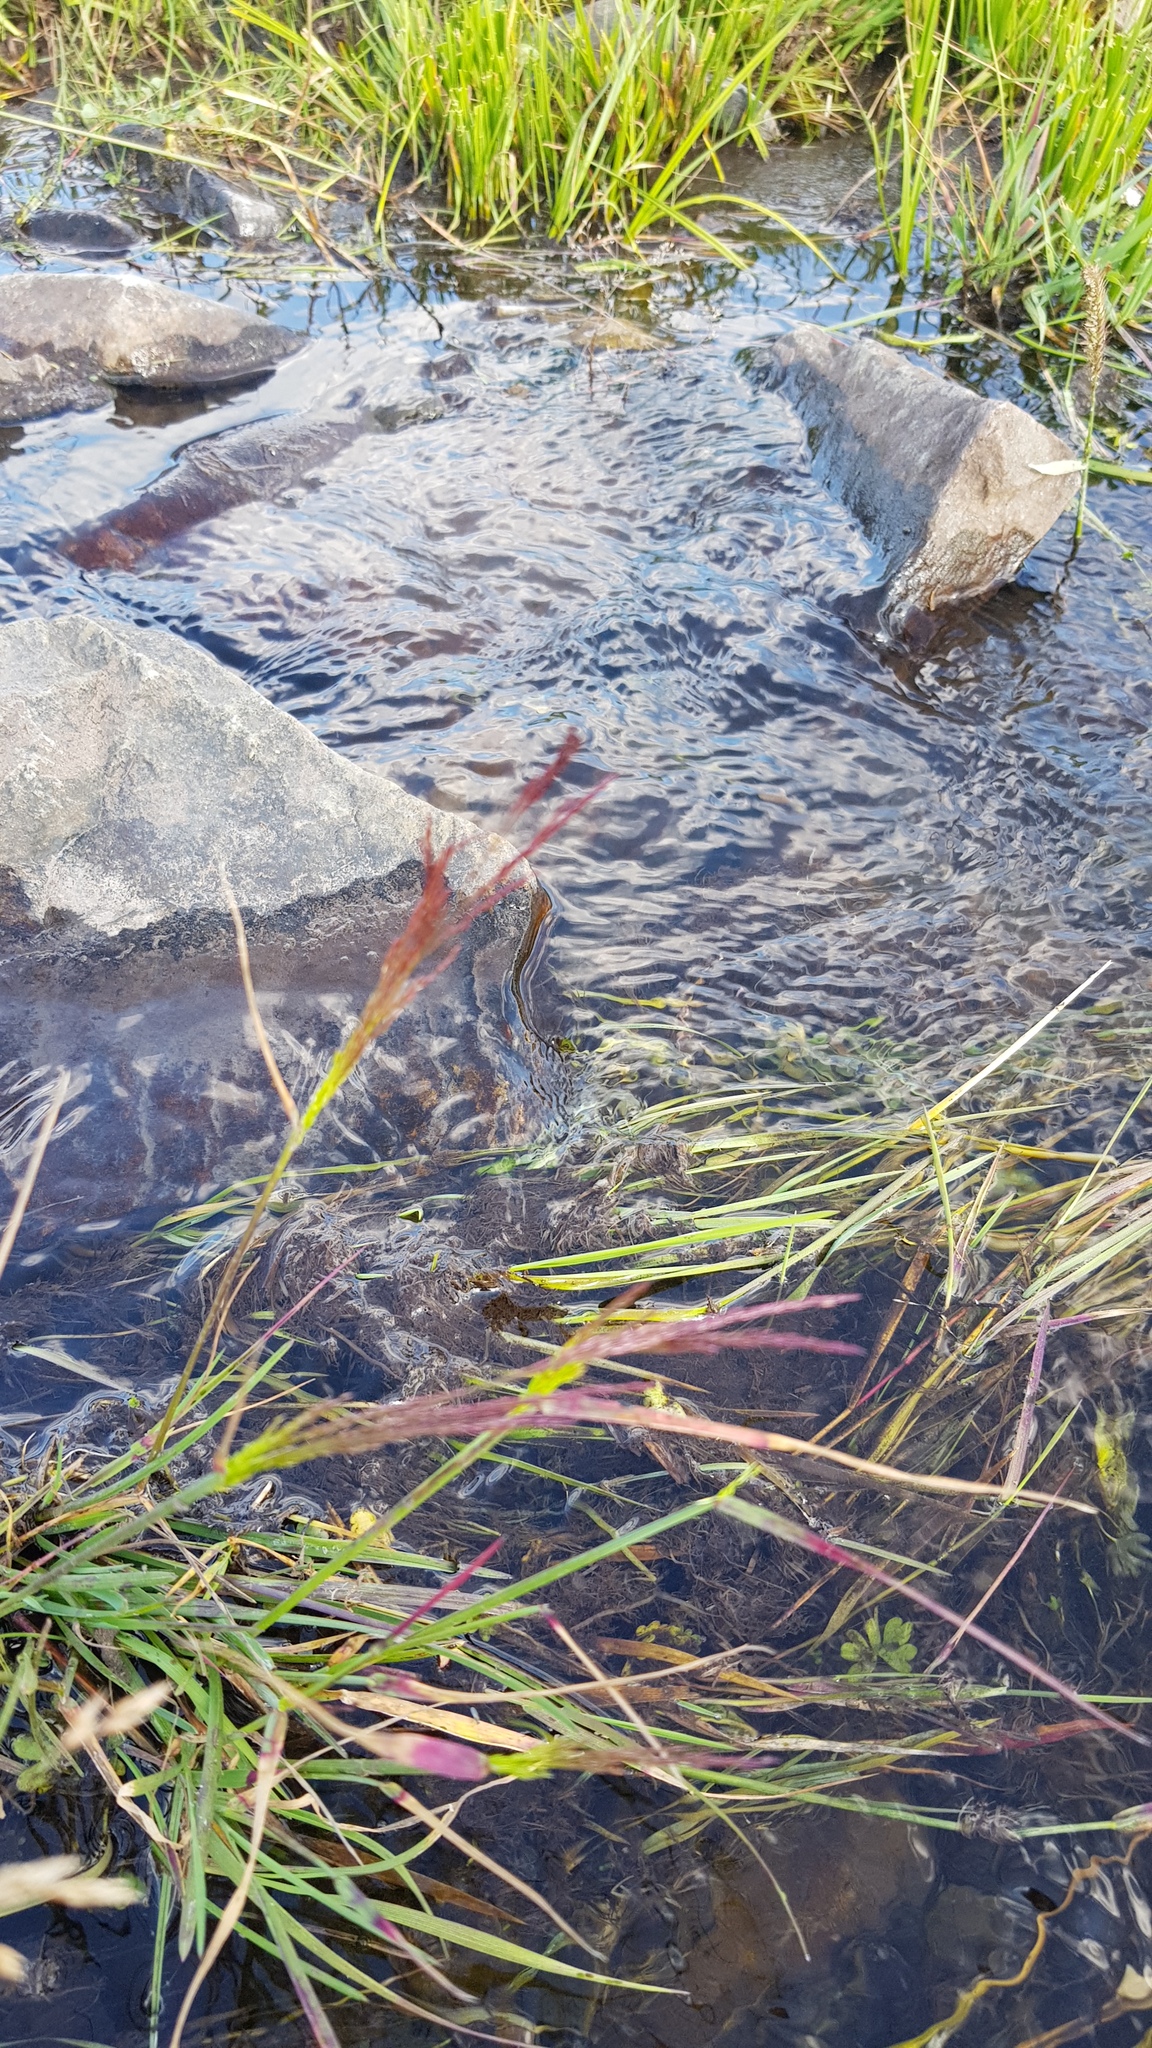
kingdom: Plantae
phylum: Tracheophyta
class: Liliopsida
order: Poales
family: Poaceae
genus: Calamagrostis
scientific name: Calamagrostis purpurea
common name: Scandinavian small-reed
